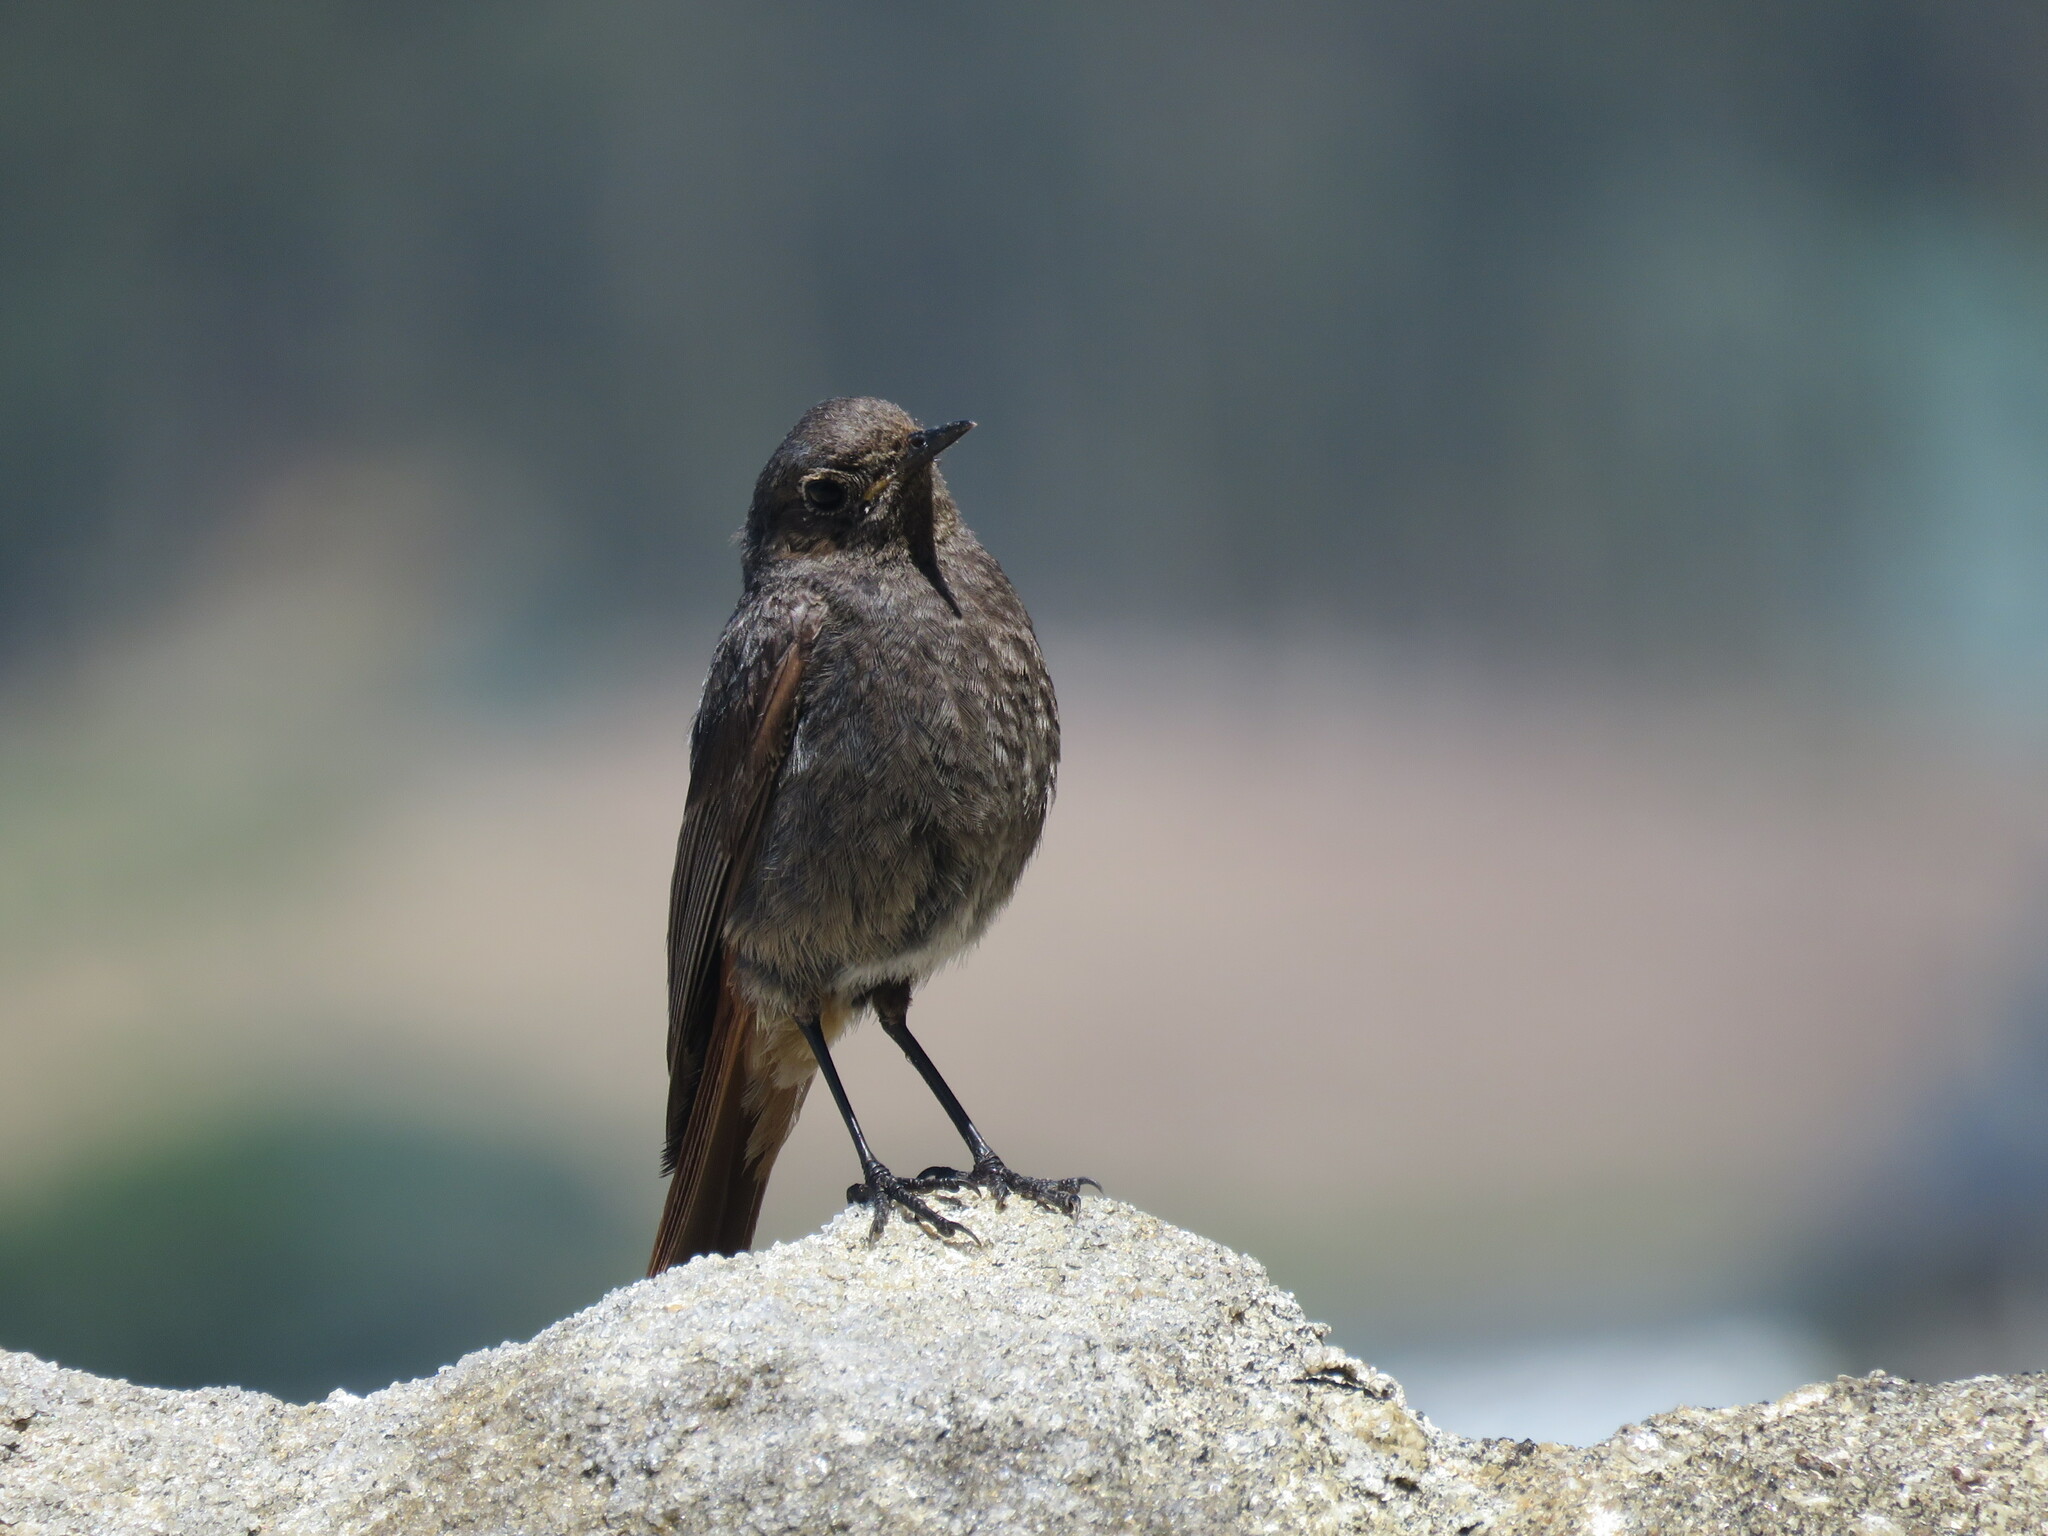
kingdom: Animalia
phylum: Chordata
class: Aves
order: Passeriformes
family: Muscicapidae
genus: Phoenicurus
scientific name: Phoenicurus ochruros
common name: Black redstart
